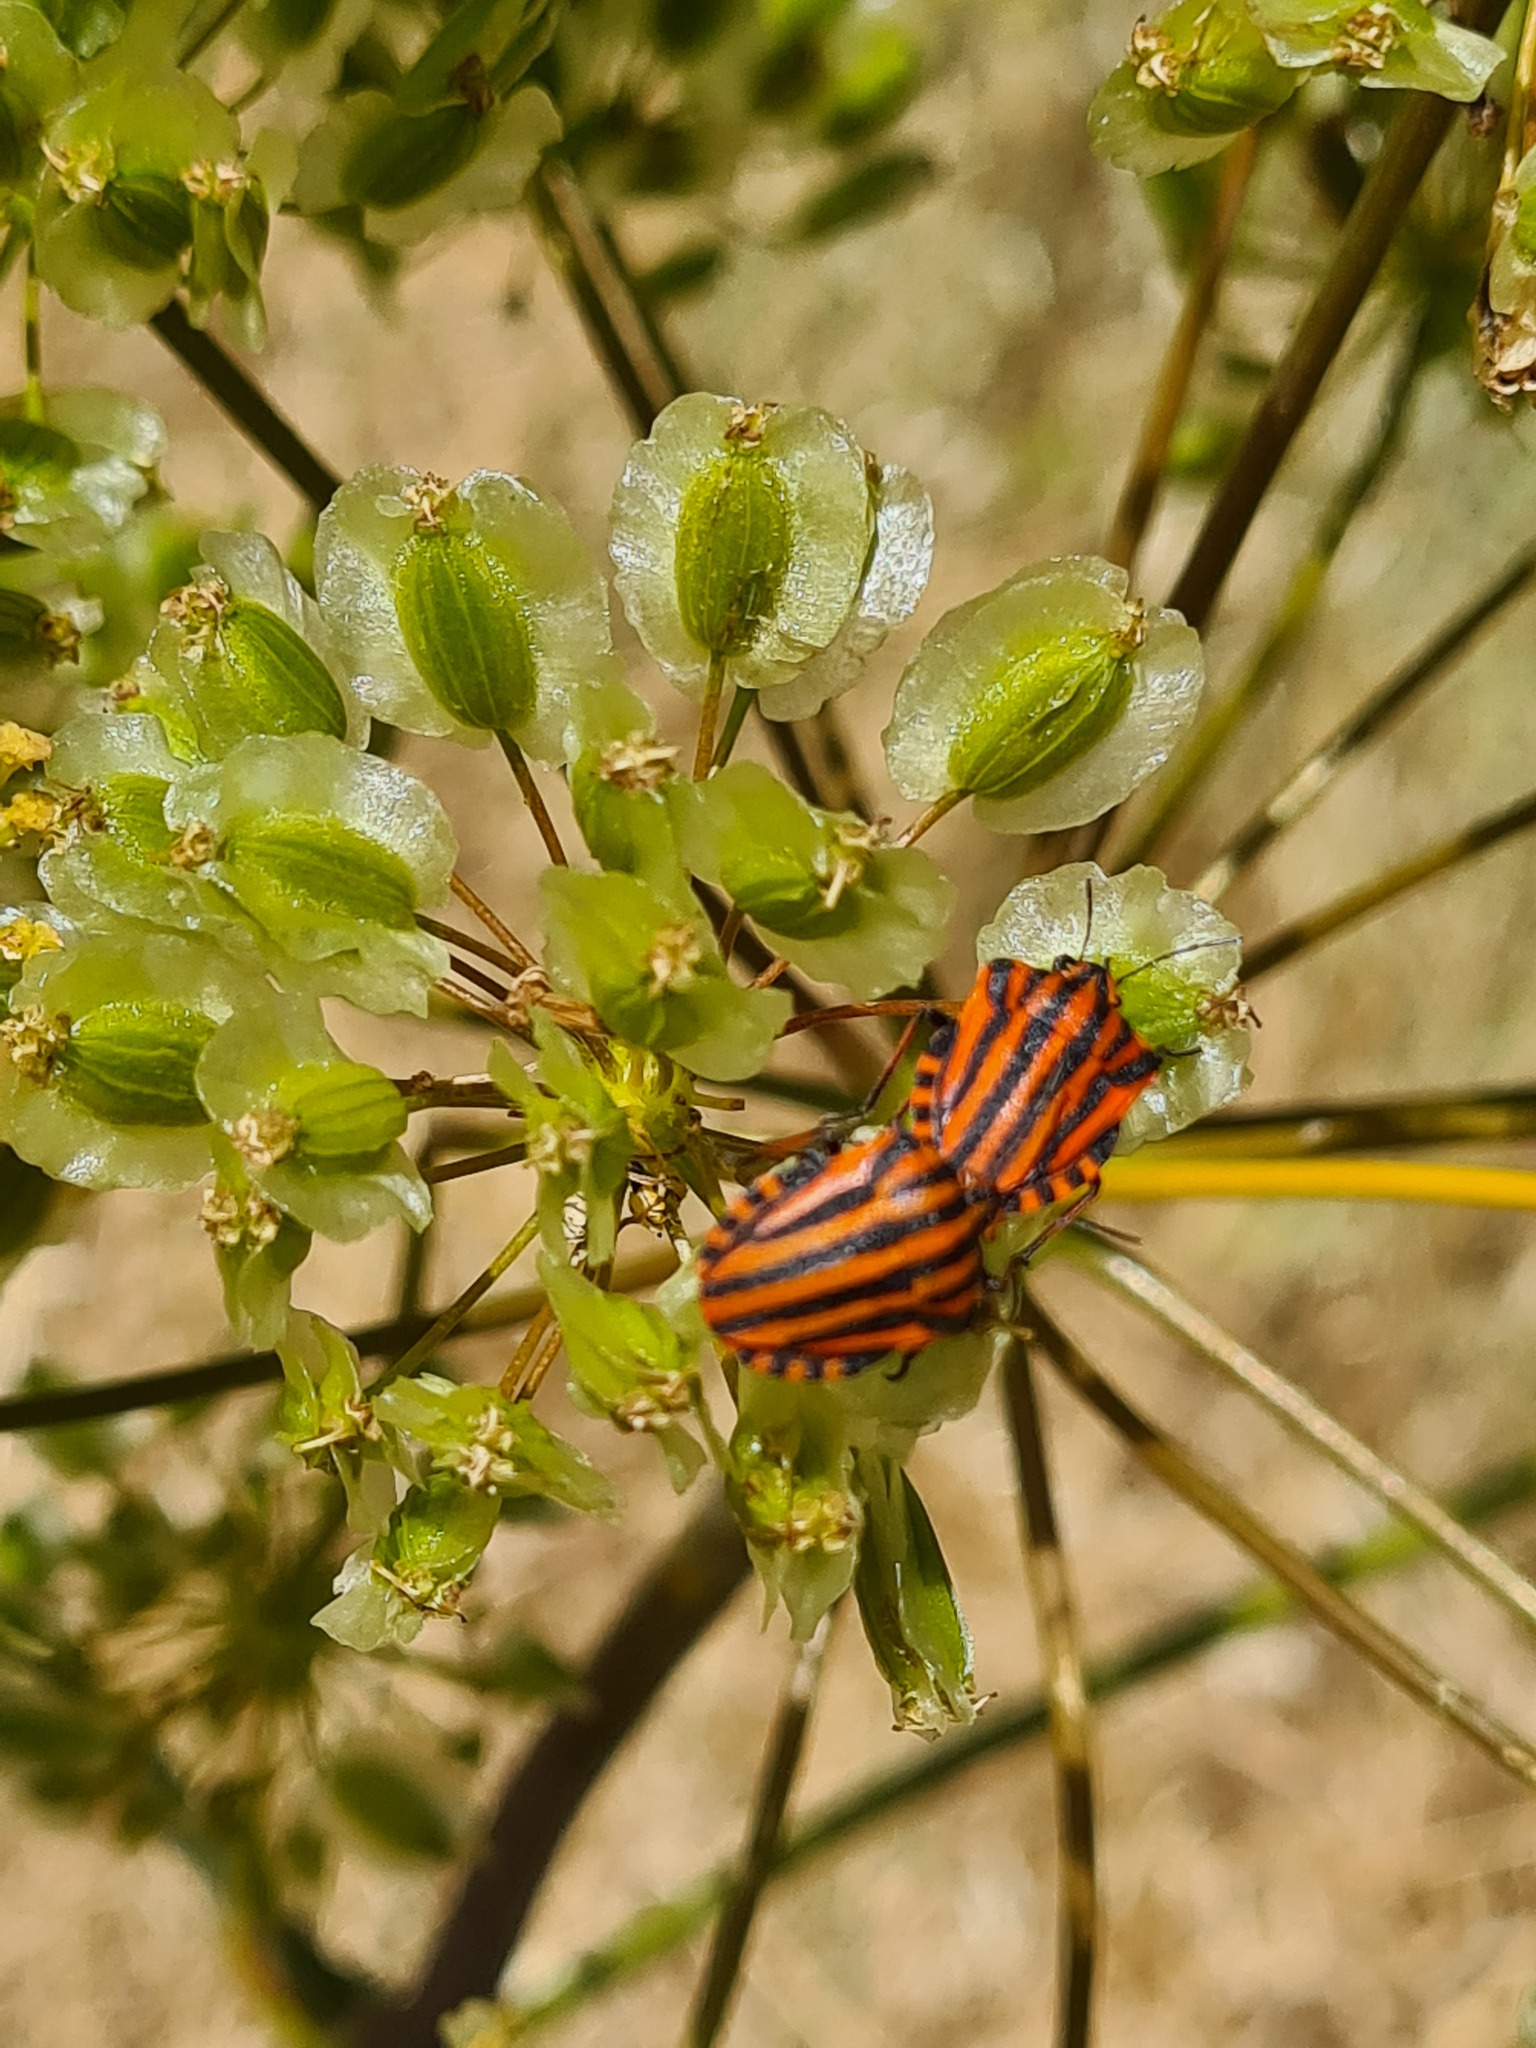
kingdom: Animalia
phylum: Arthropoda
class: Insecta
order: Hemiptera
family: Pentatomidae
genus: Graphosoma
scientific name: Graphosoma italicum
